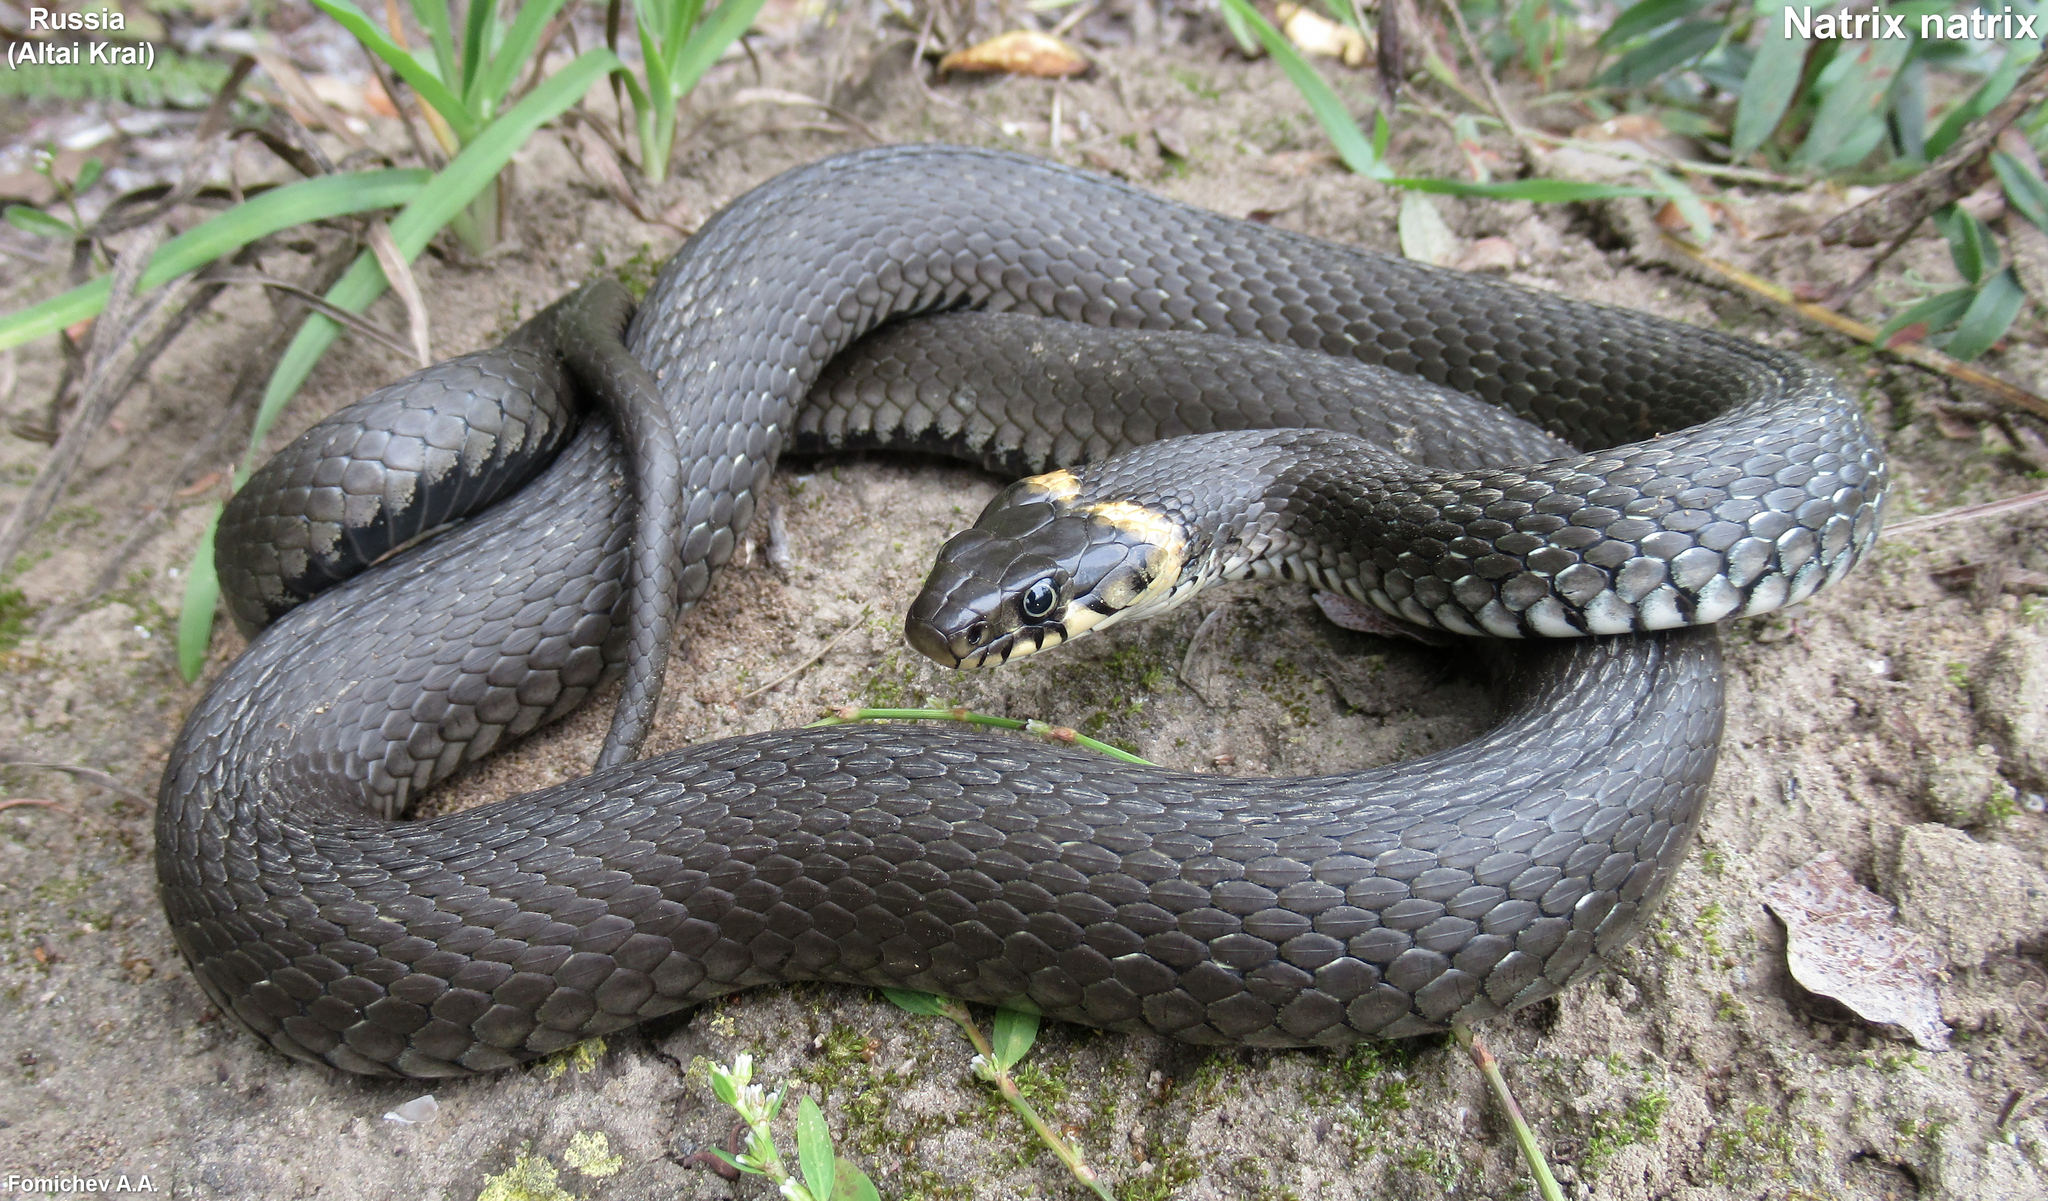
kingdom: Animalia
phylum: Chordata
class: Squamata
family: Colubridae
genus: Natrix
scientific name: Natrix natrix
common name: Grass snake
